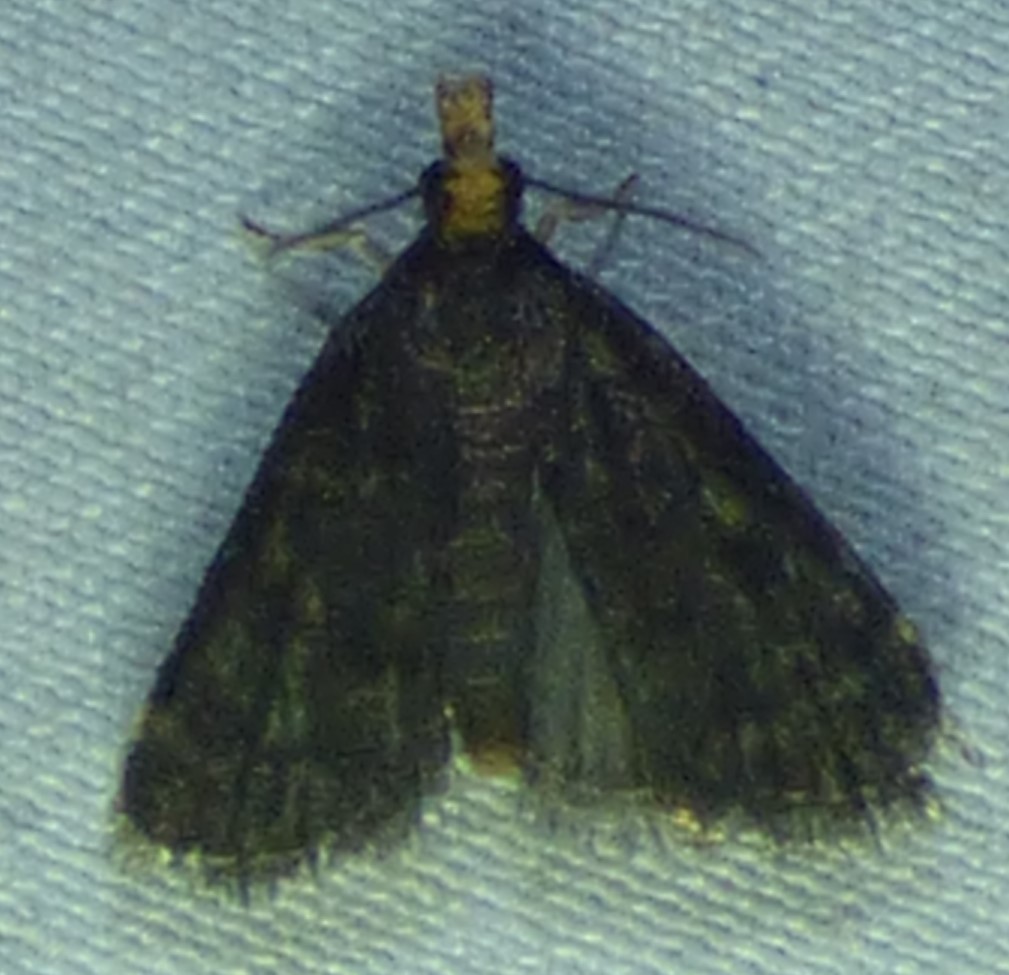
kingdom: Animalia
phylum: Arthropoda
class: Insecta
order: Lepidoptera
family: Crambidae
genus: Pyrausta
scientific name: Pyrausta merrickalis
